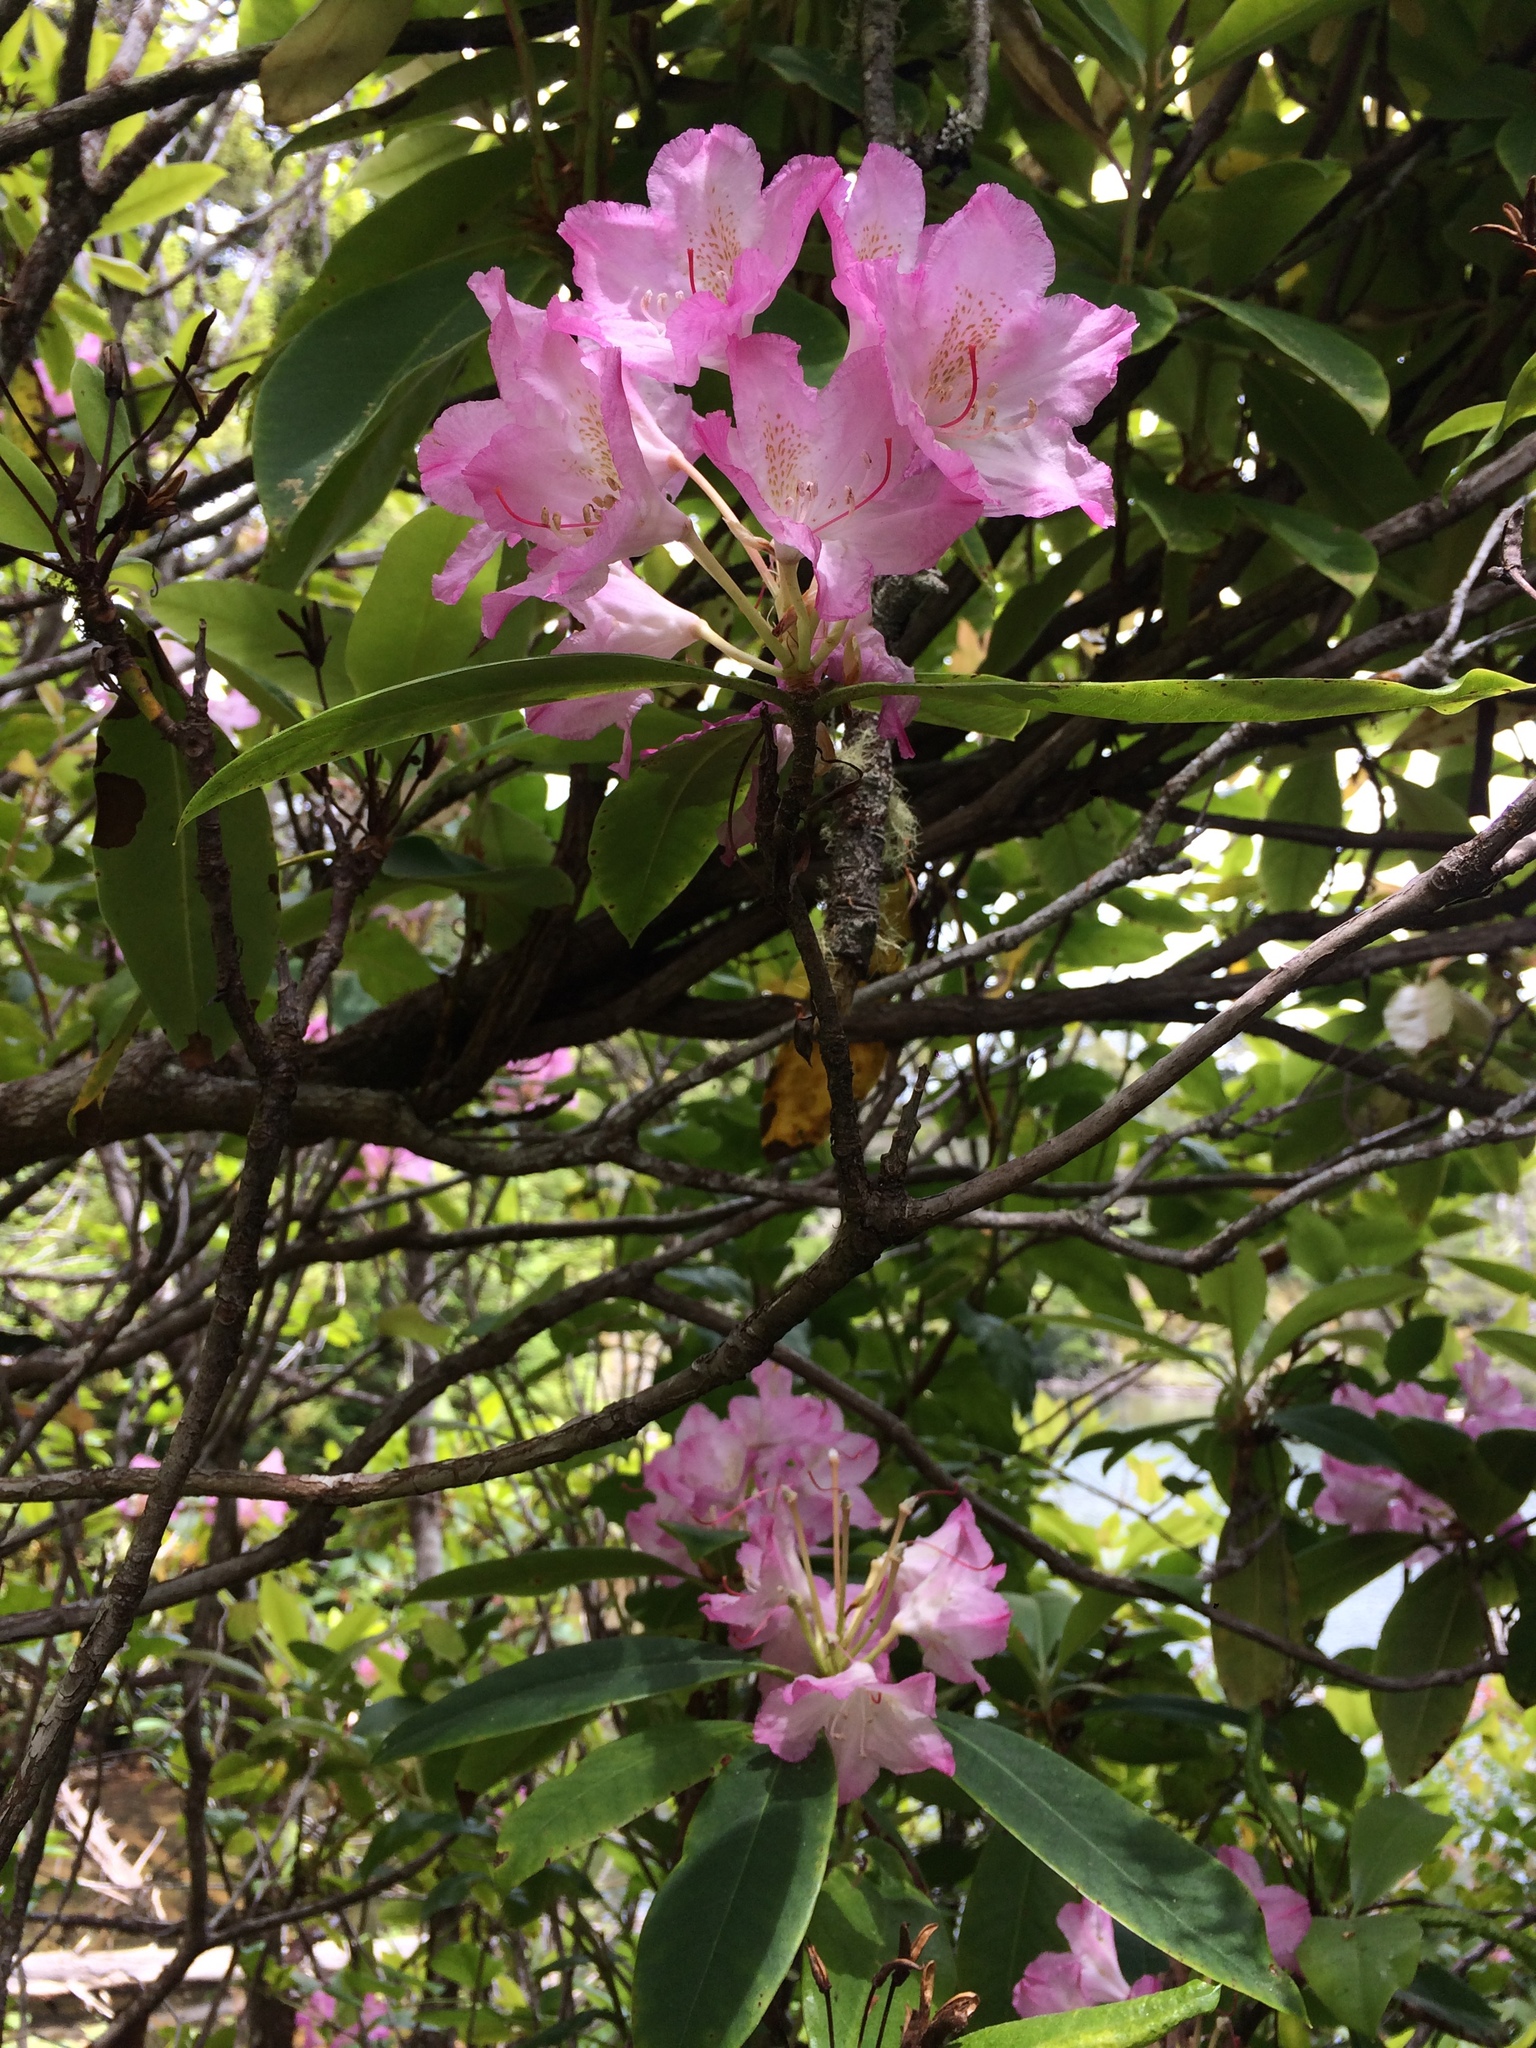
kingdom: Plantae
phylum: Tracheophyta
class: Magnoliopsida
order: Ericales
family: Ericaceae
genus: Rhododendron
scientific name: Rhododendron macrophyllum
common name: California rose bay
